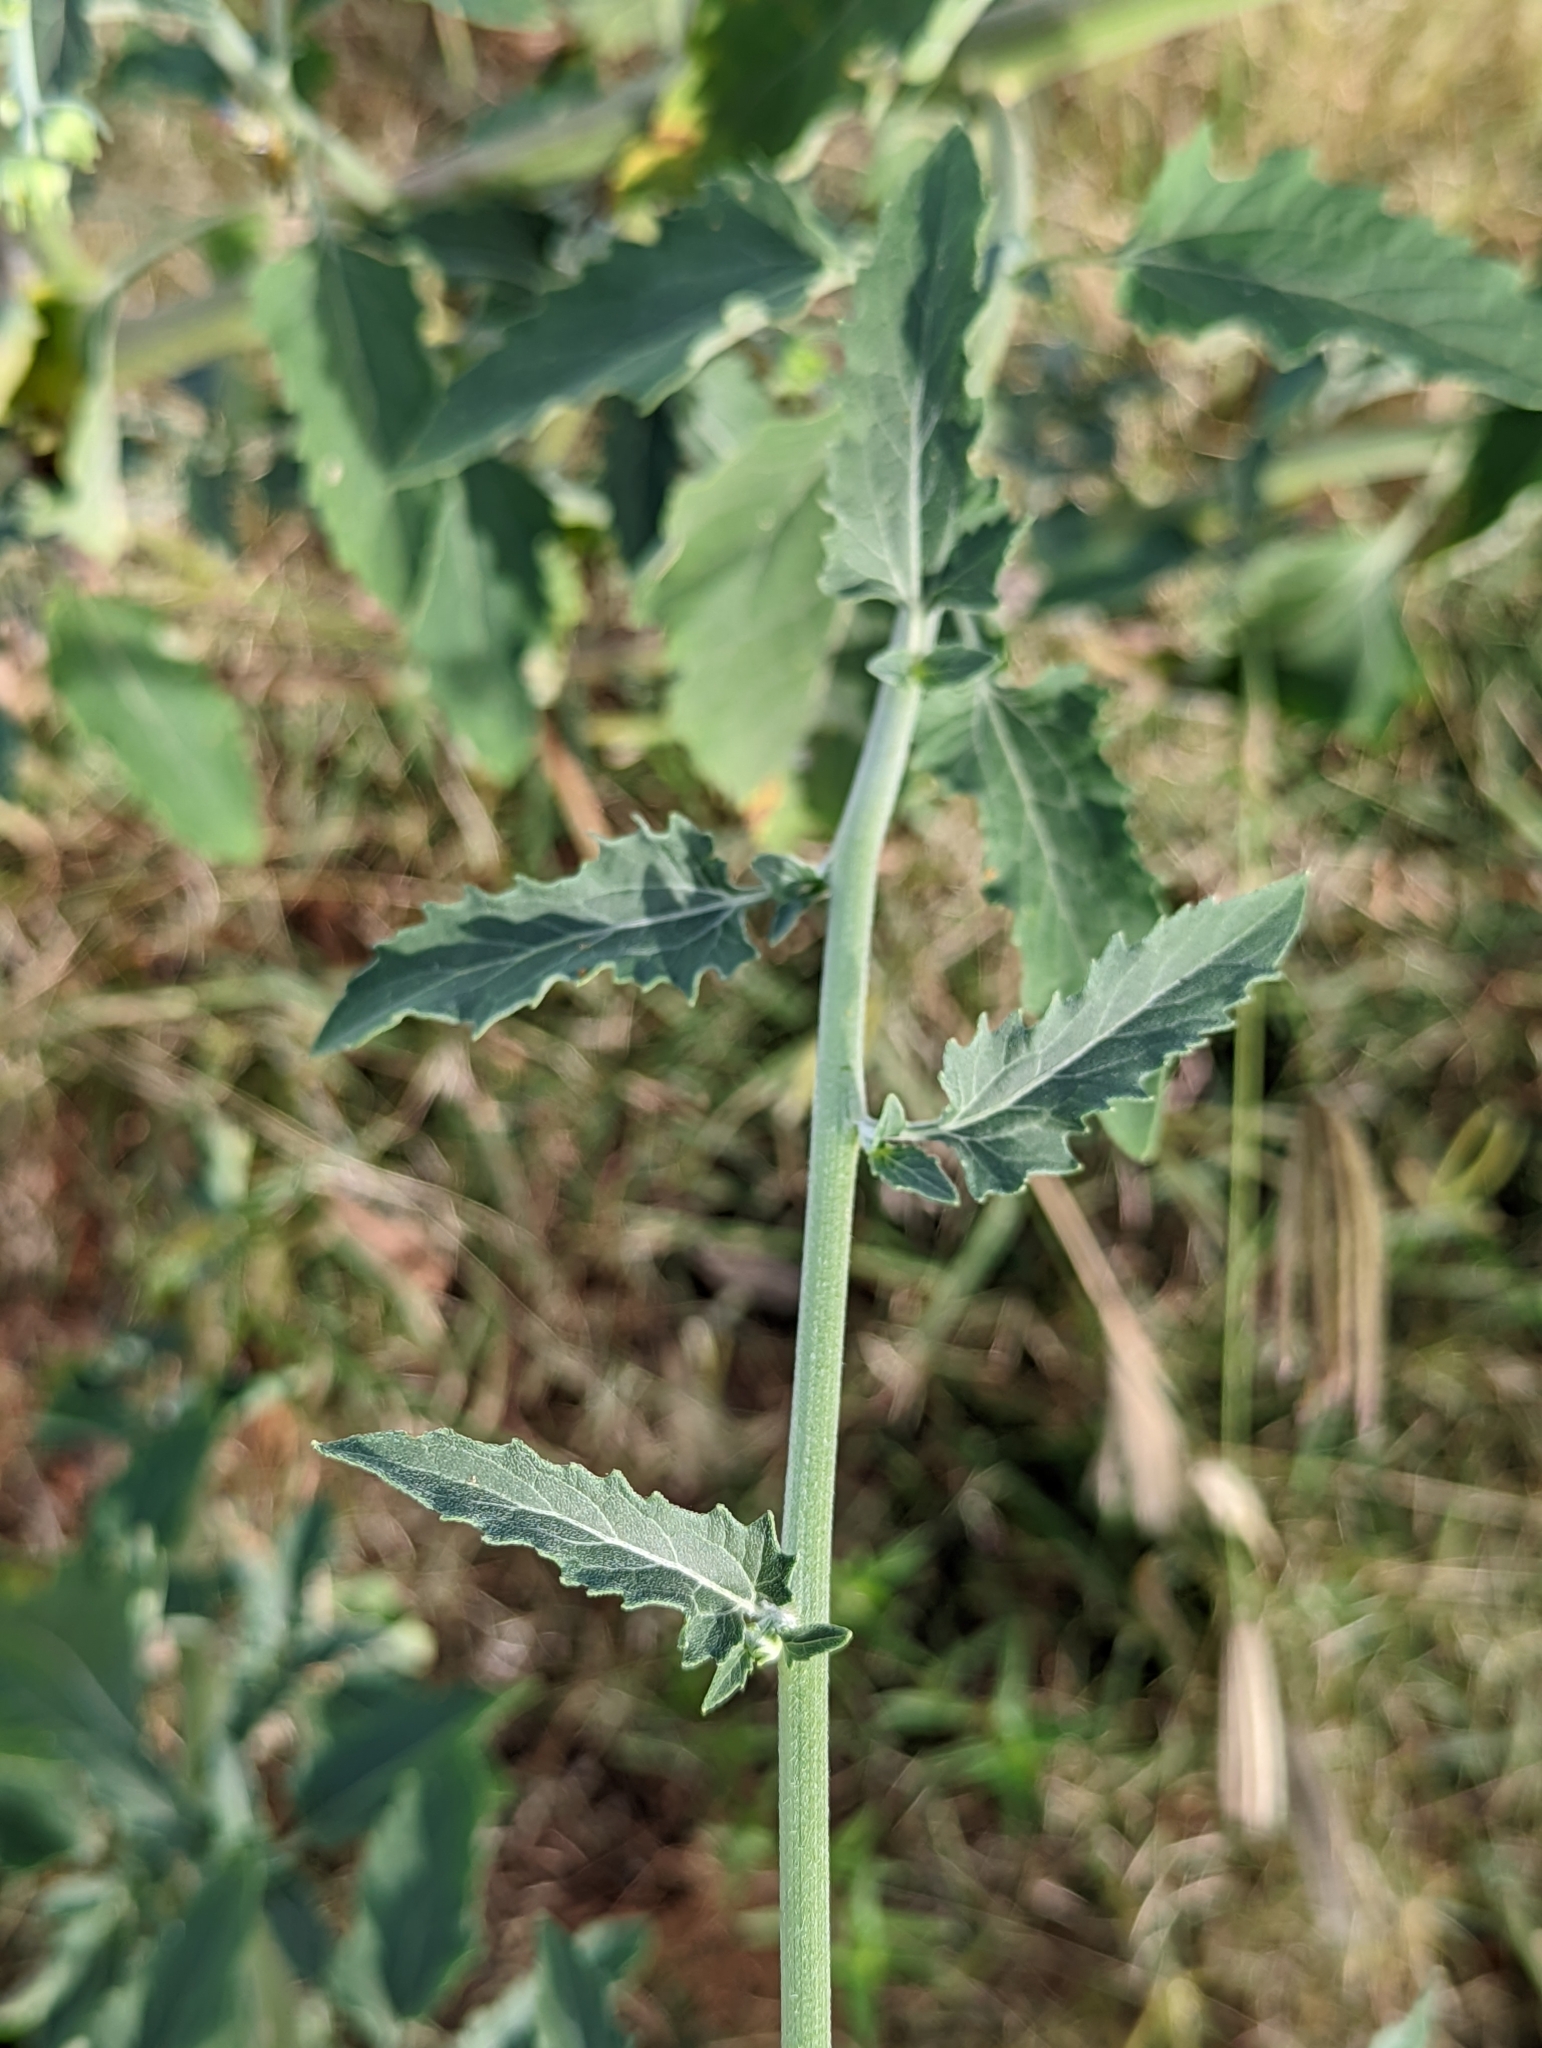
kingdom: Plantae
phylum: Tracheophyta
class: Magnoliopsida
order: Asterales
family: Asteraceae
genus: Verbesina
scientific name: Verbesina encelioides
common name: Golden crownbeard
